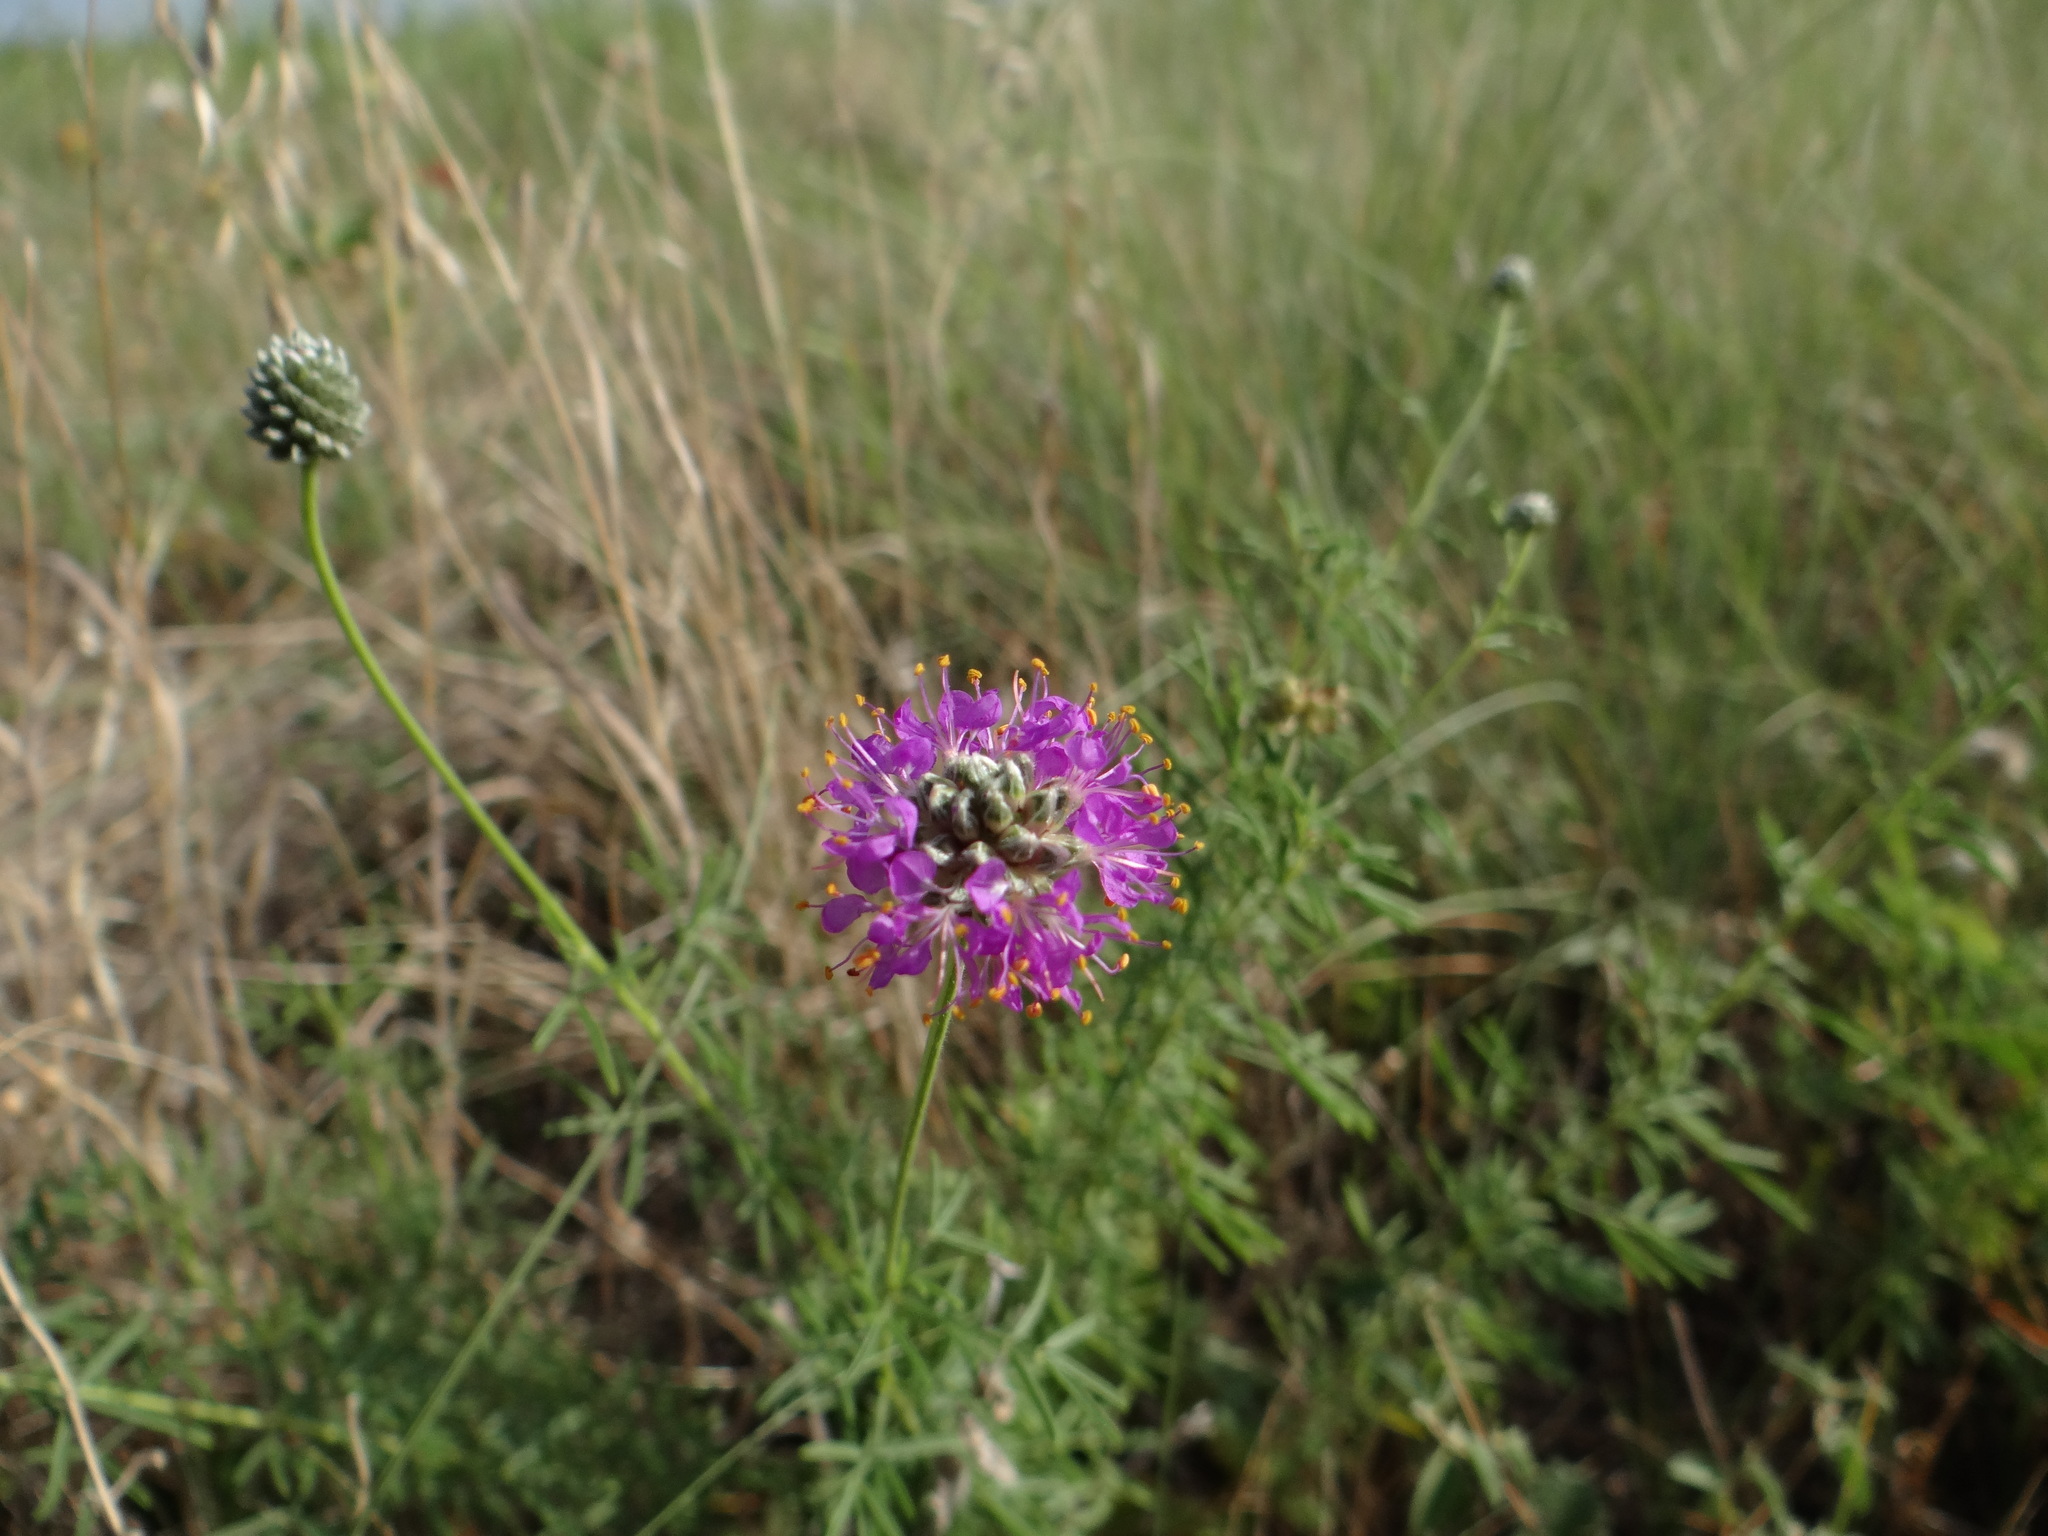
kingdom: Plantae
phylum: Tracheophyta
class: Magnoliopsida
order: Fabales
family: Fabaceae
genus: Dalea
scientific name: Dalea compacta
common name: Compact prairie-clover
